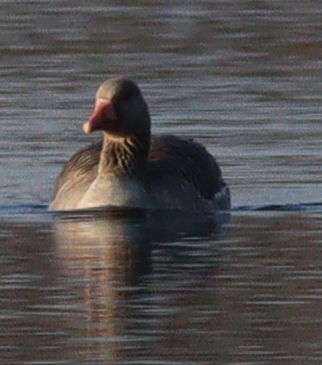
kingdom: Animalia
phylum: Chordata
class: Aves
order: Anseriformes
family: Anatidae
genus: Anser
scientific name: Anser anser
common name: Greylag goose
